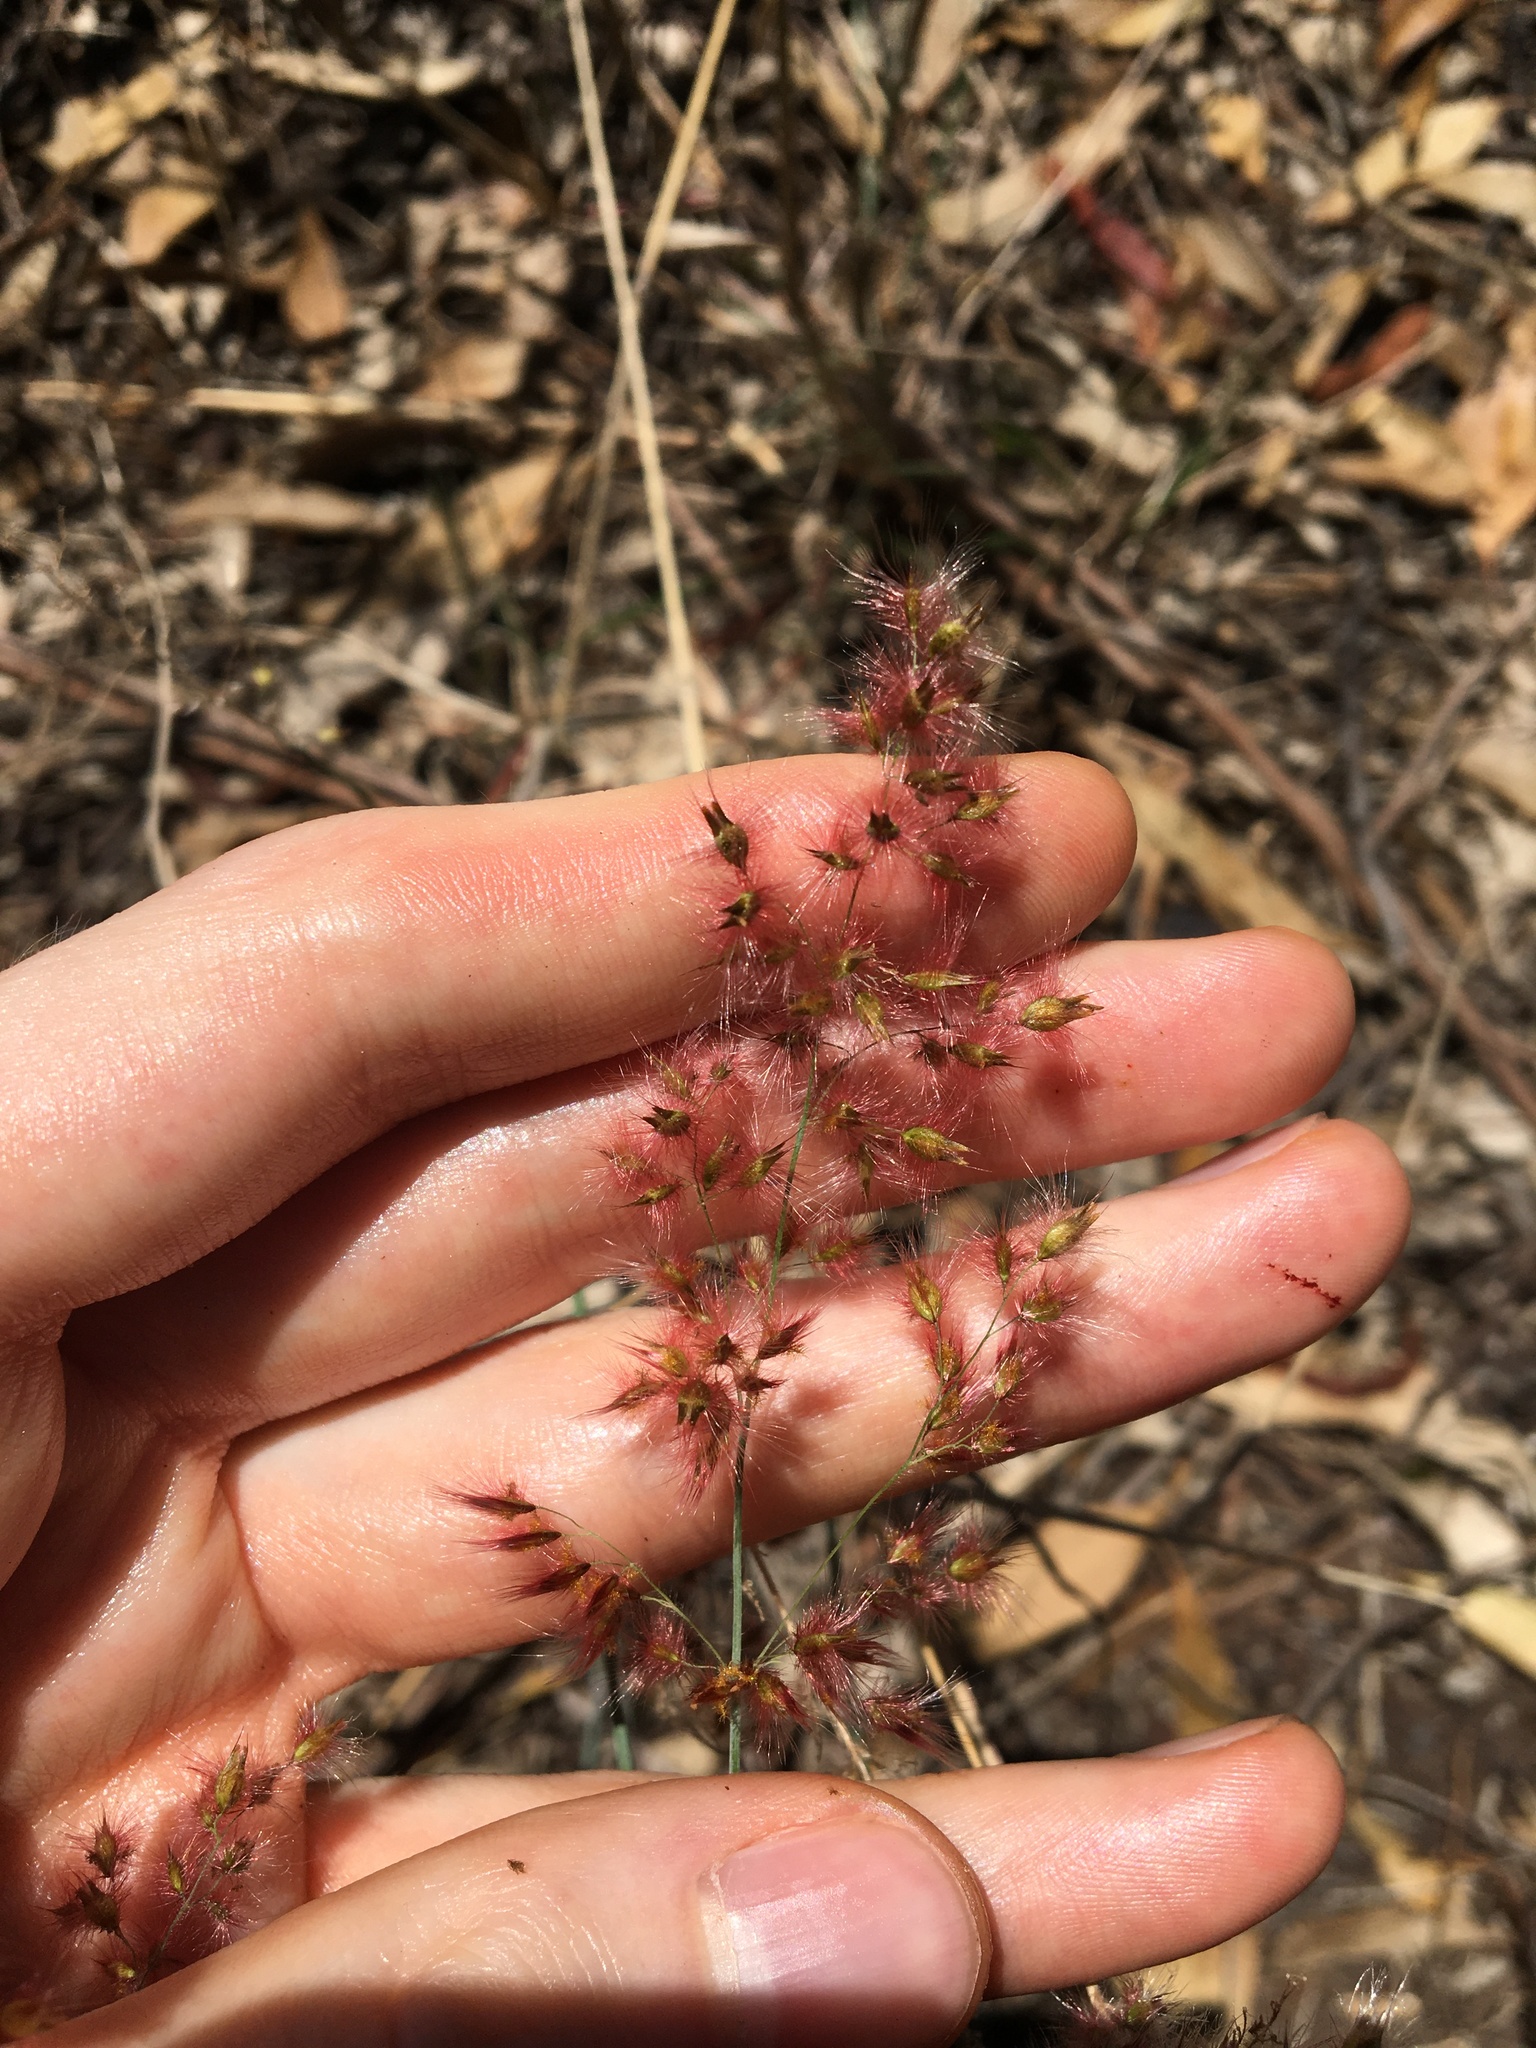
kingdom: Plantae
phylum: Tracheophyta
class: Liliopsida
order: Poales
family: Poaceae
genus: Melinis
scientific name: Melinis repens
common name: Rose natal grass
